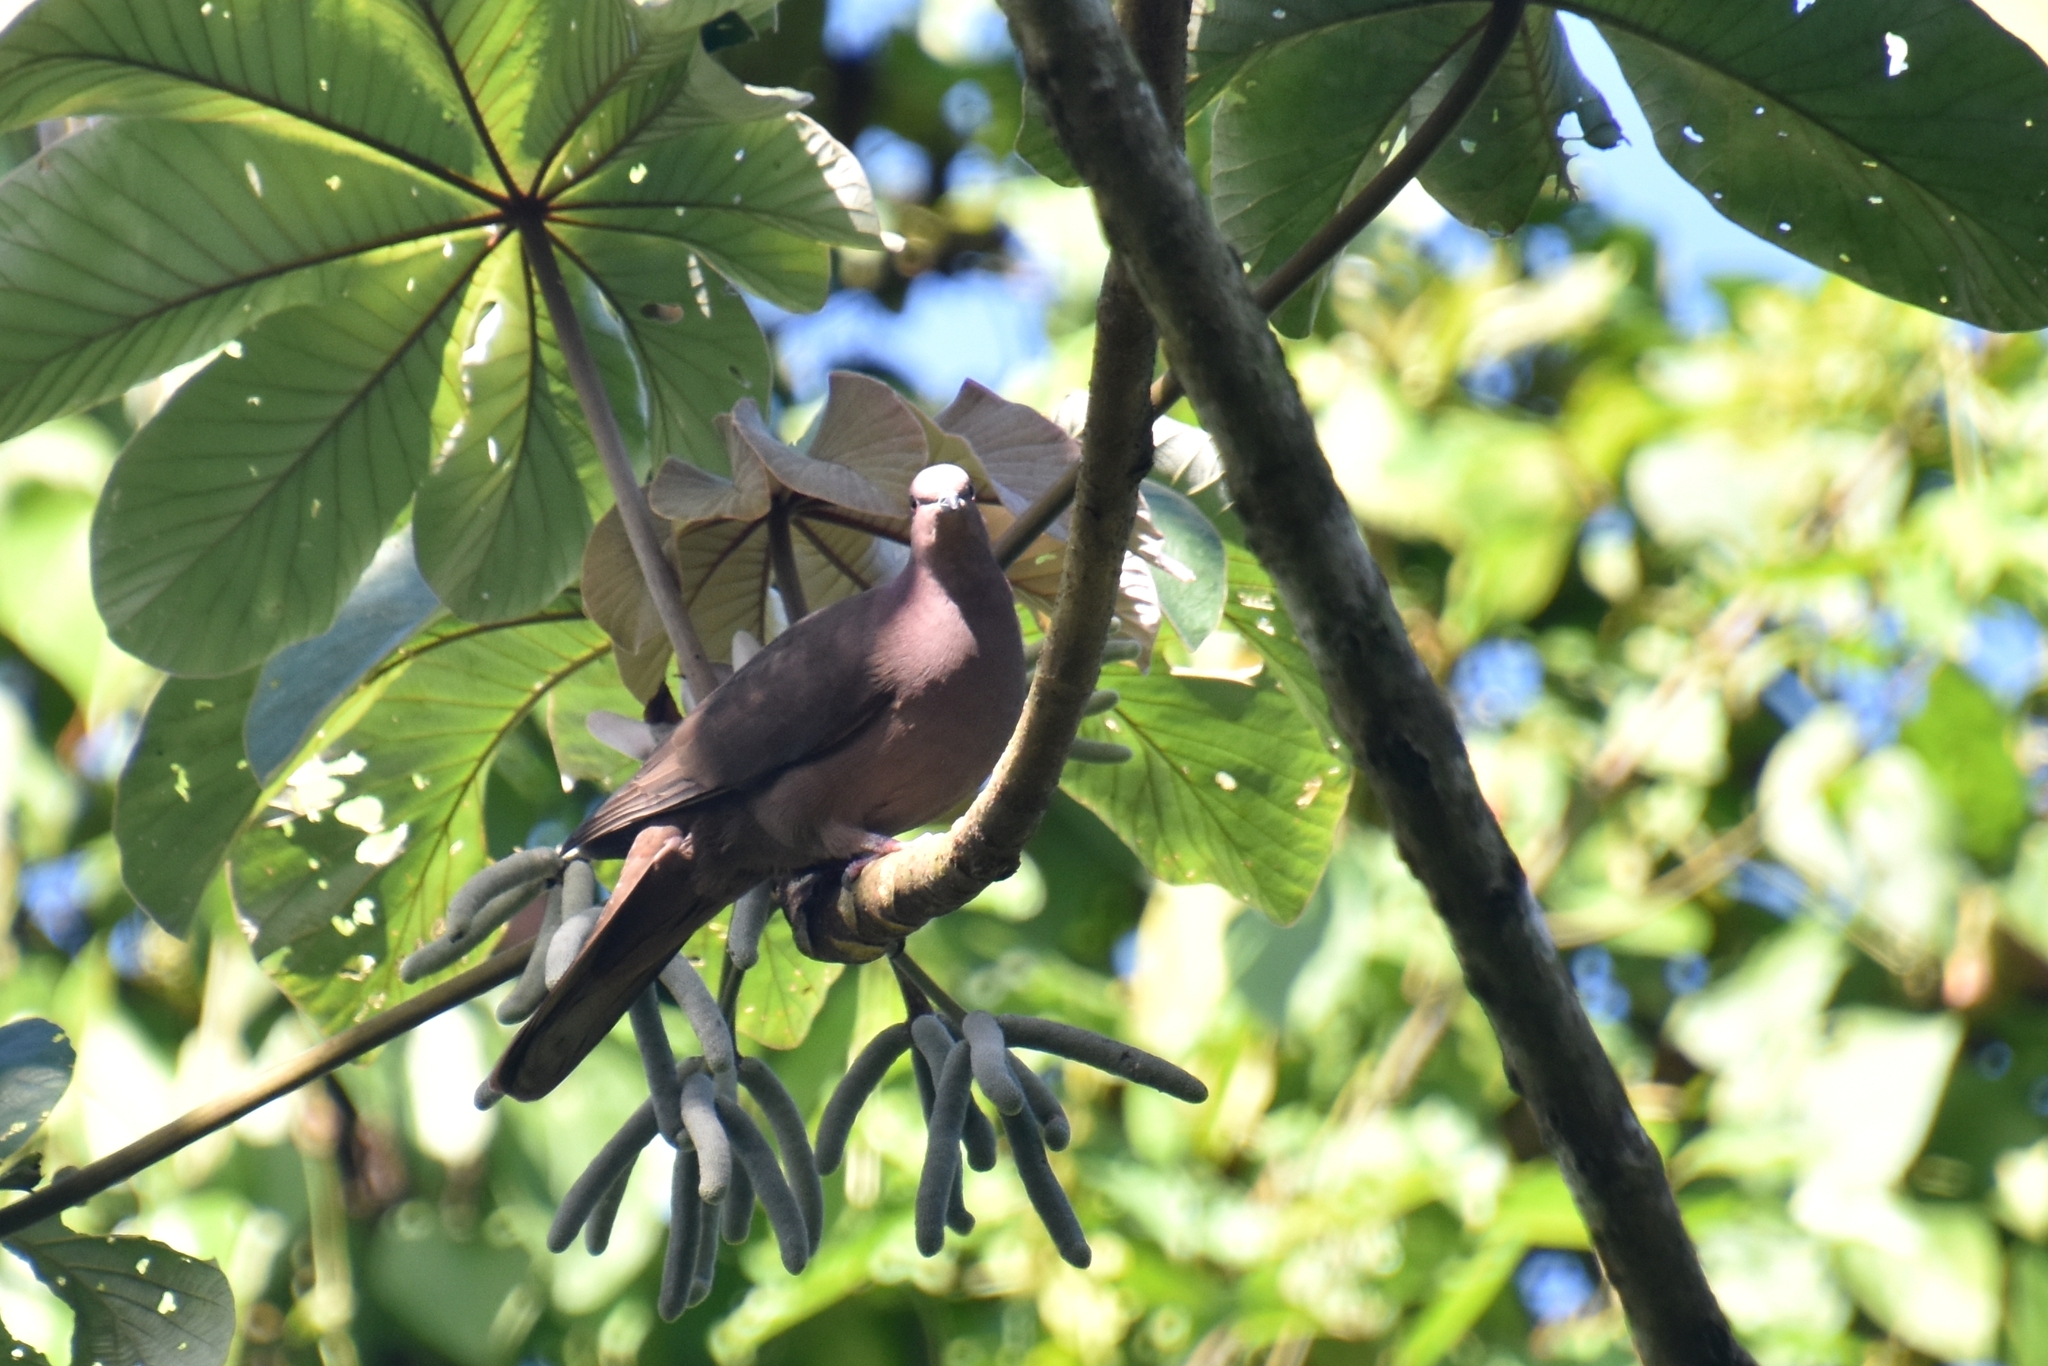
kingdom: Animalia
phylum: Chordata
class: Aves
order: Columbiformes
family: Columbidae
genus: Patagioenas
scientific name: Patagioenas nigrirostris
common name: Short-billed pigeon
